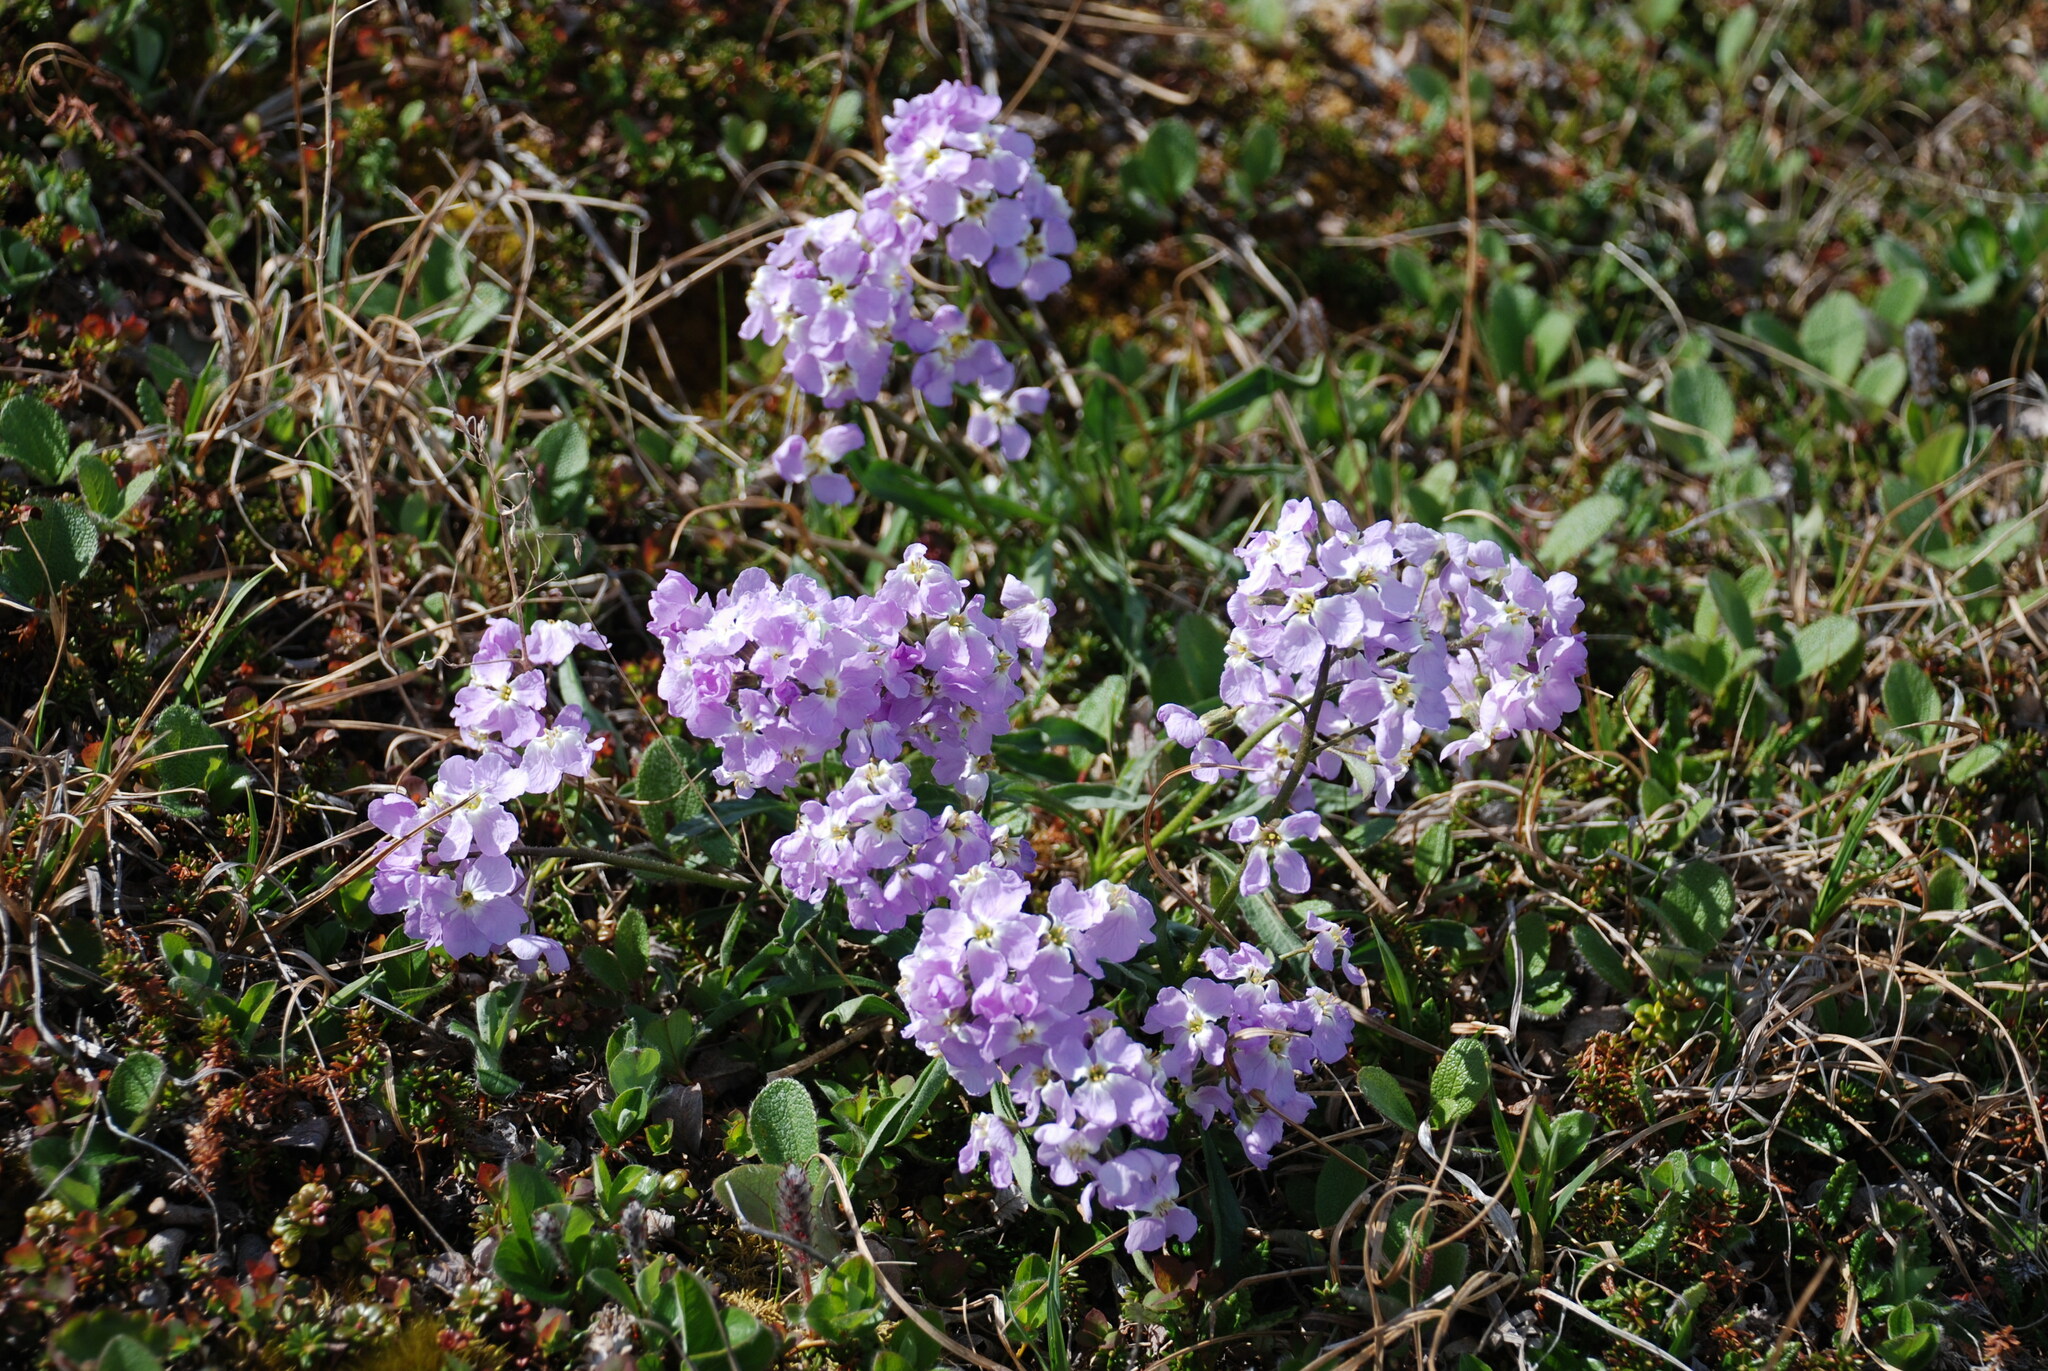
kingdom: Plantae
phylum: Tracheophyta
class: Magnoliopsida
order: Brassicales
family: Brassicaceae
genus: Parrya
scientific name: Parrya nudicaulis
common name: Naked-stemmed false wallflower
